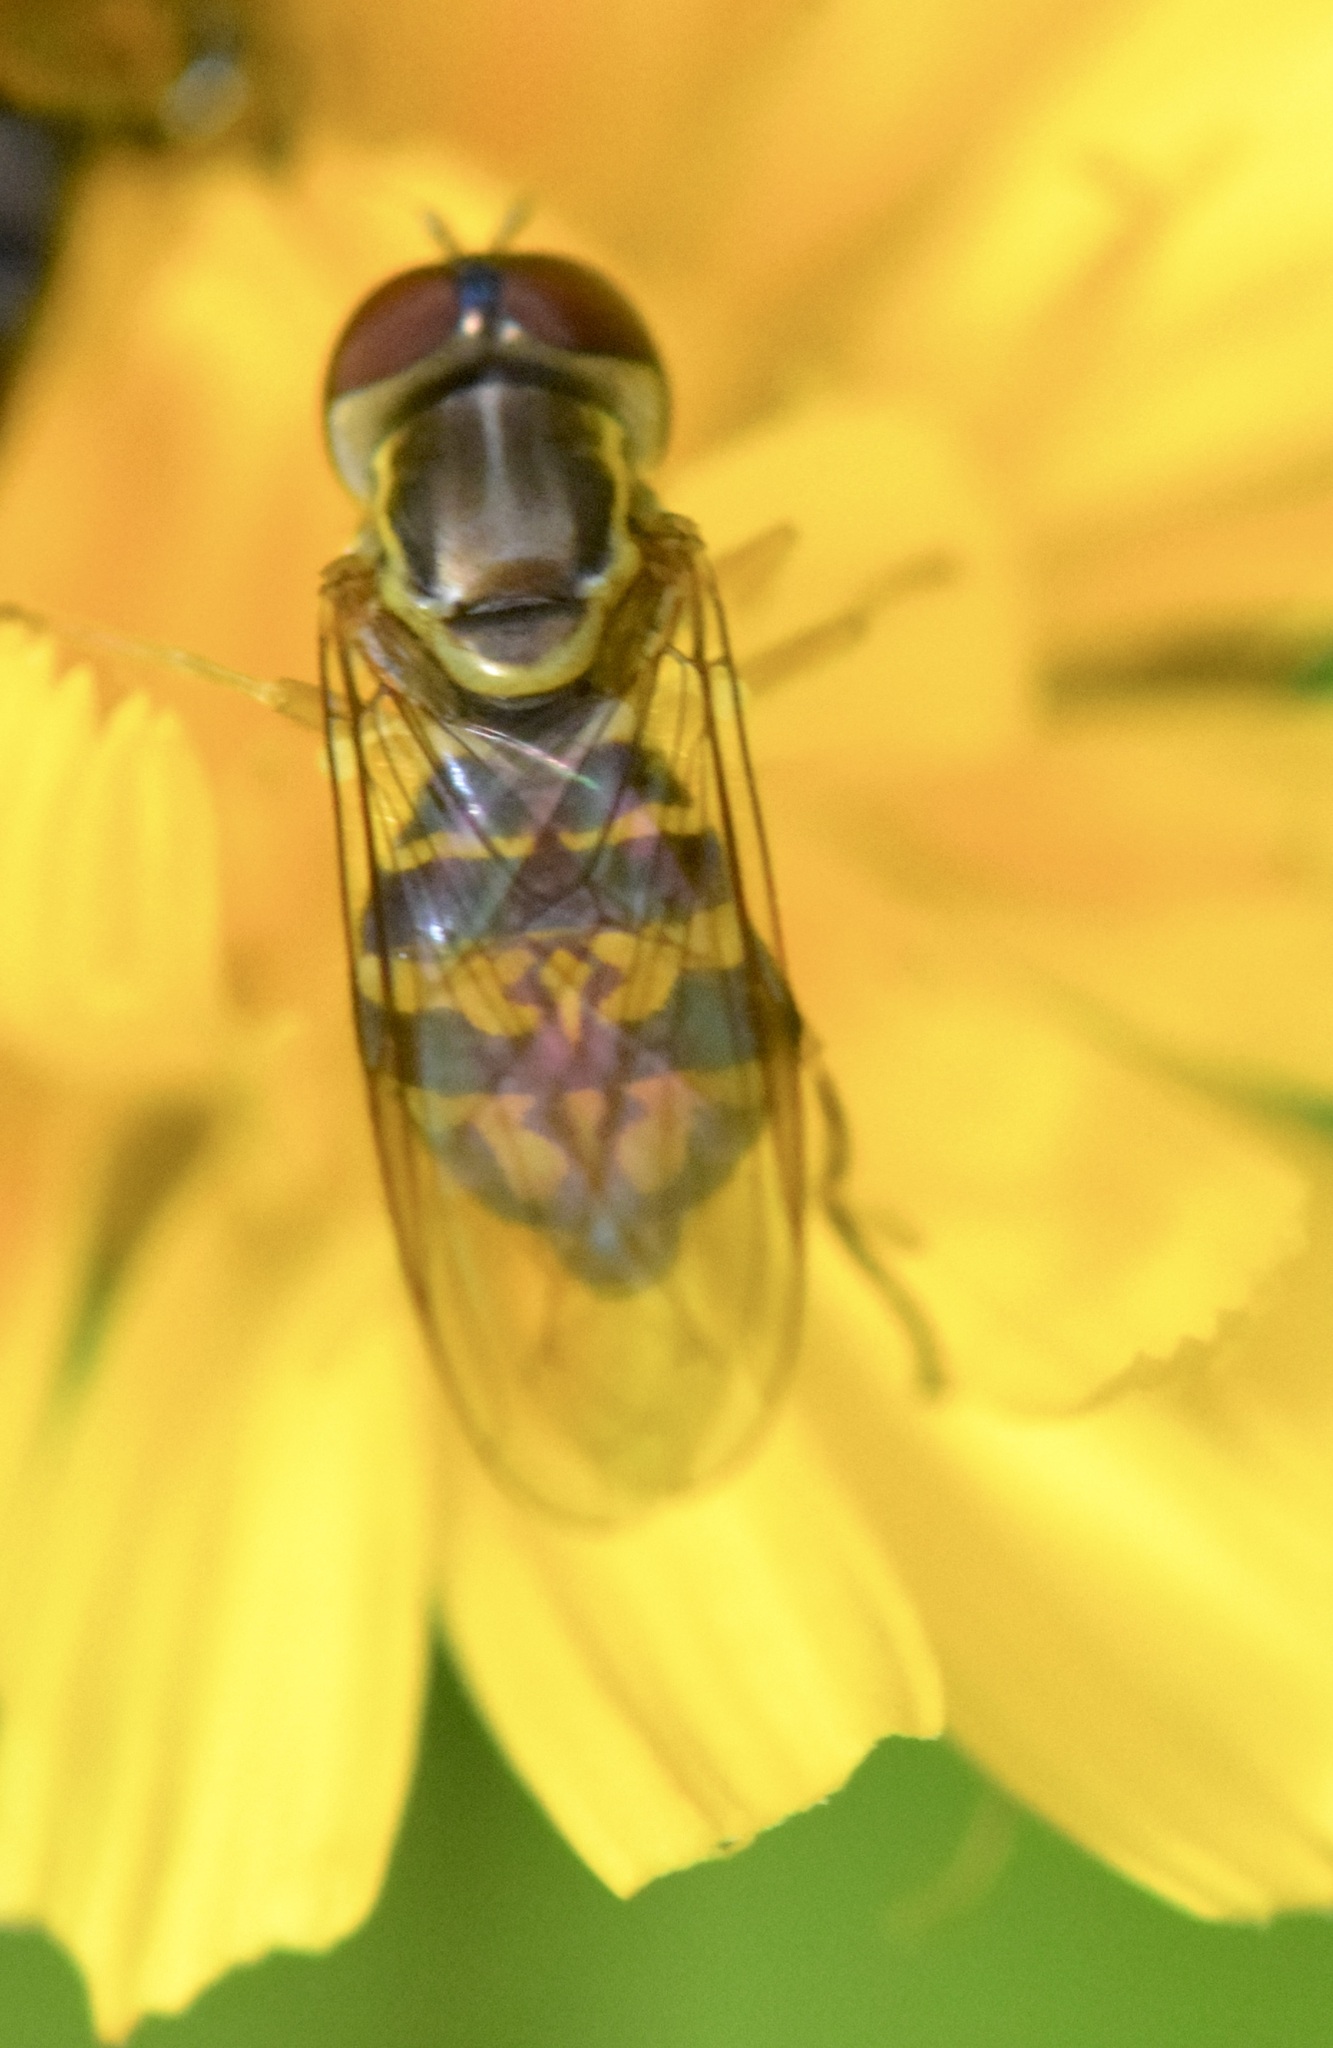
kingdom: Animalia
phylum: Arthropoda
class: Insecta
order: Diptera
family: Syrphidae
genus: Toxomerus
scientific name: Toxomerus geminatus
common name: Eastern calligrapher
